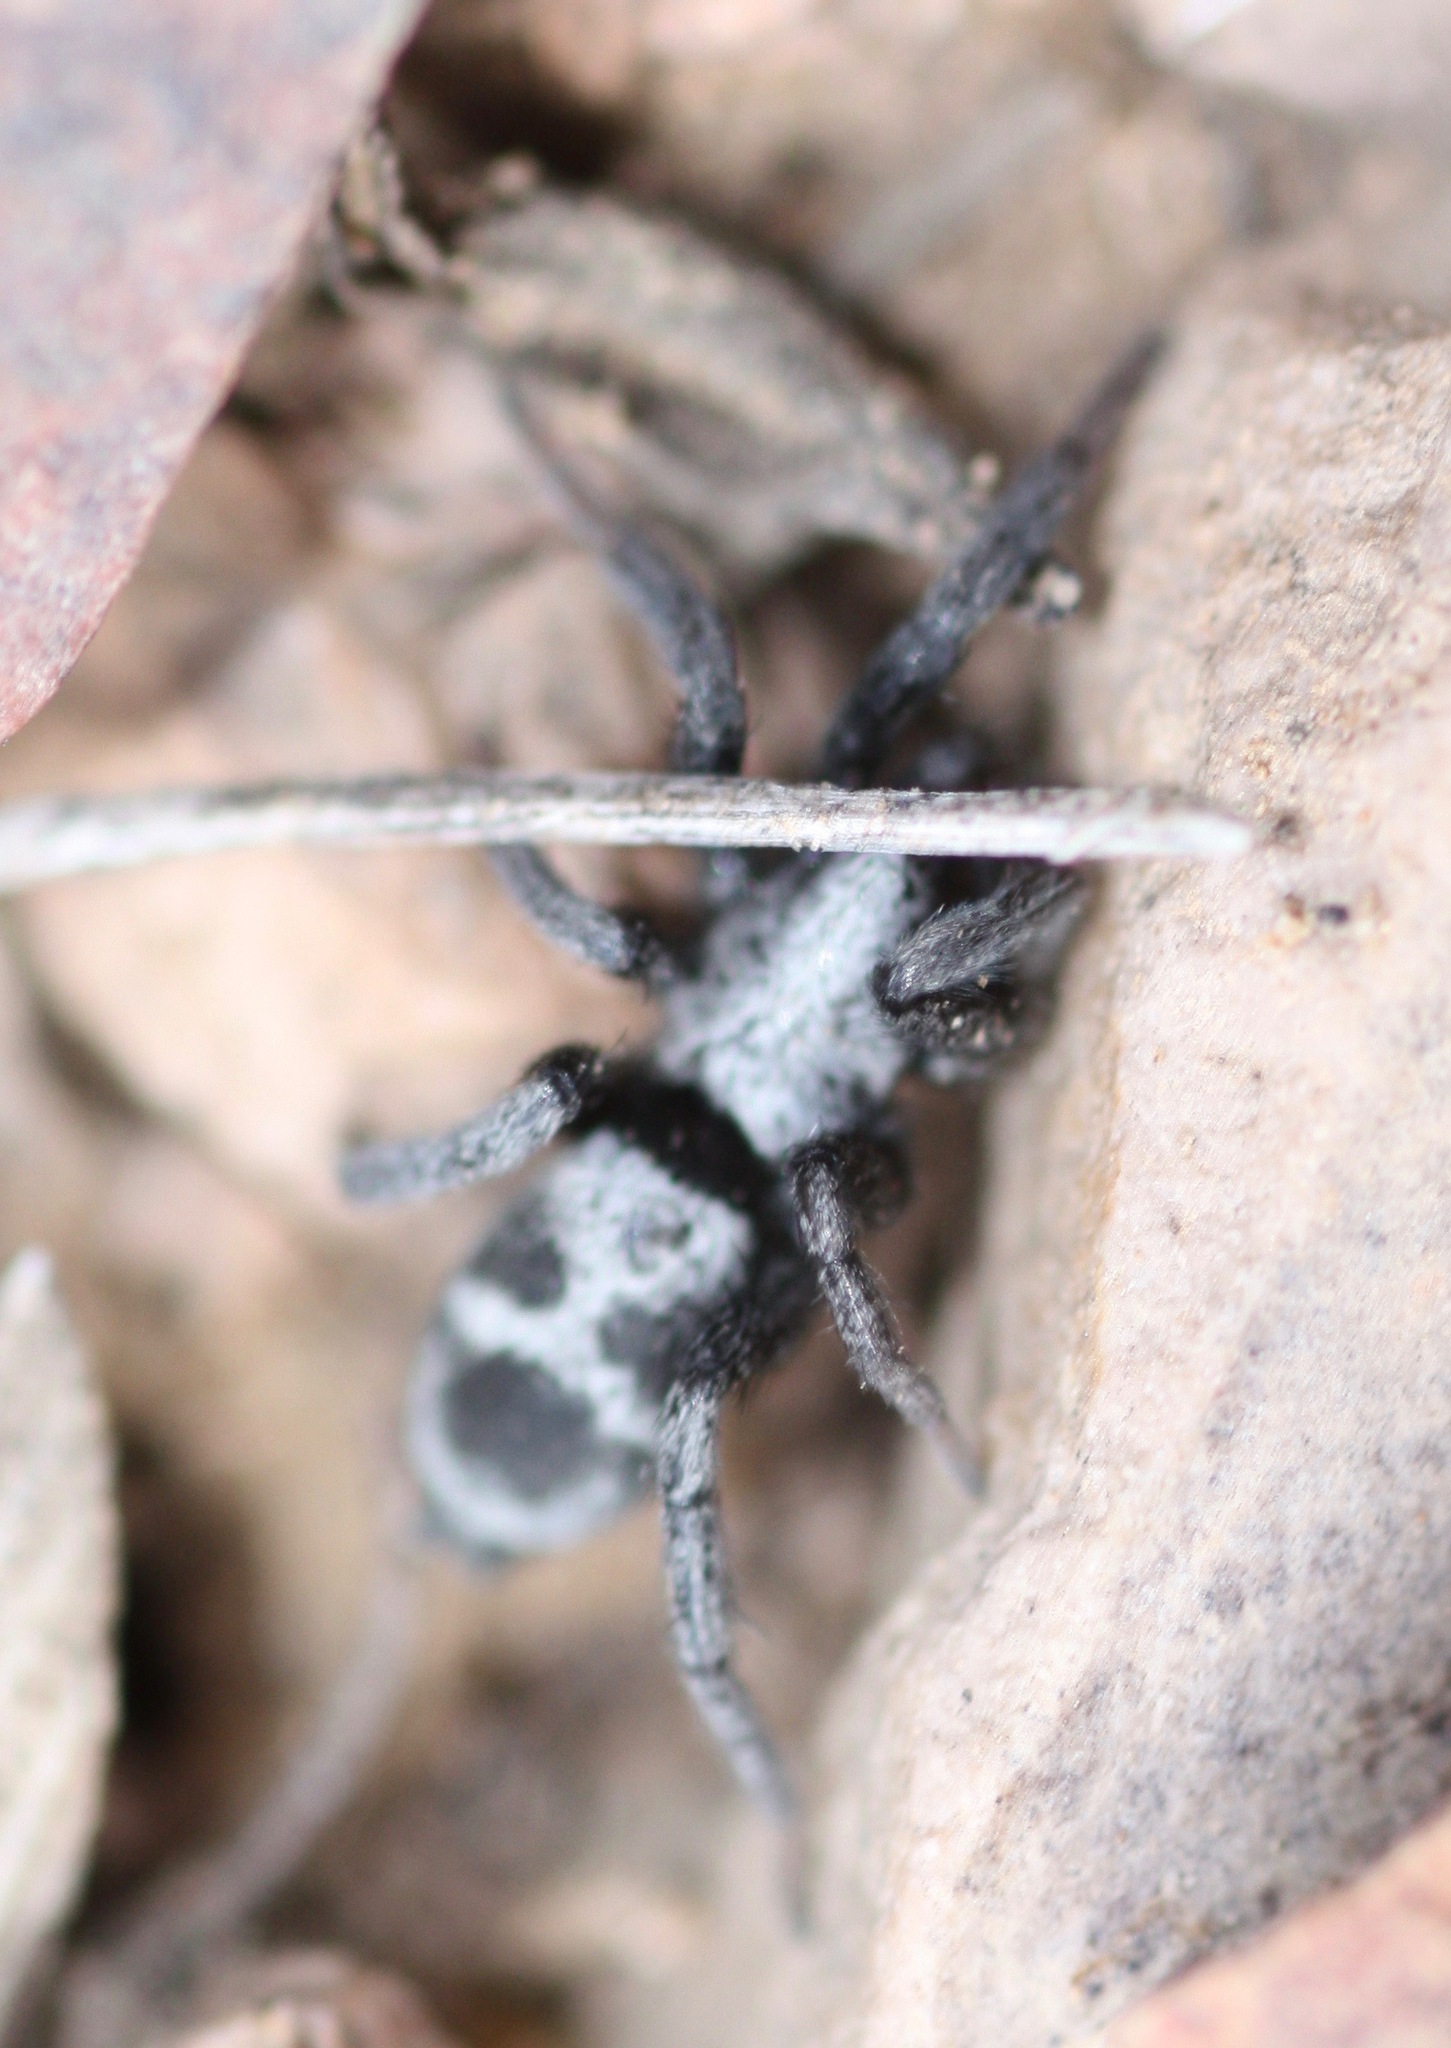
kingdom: Animalia
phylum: Arthropoda
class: Arachnida
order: Araneae
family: Gnaphosidae
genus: Sergiolus
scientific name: Sergiolus stella
